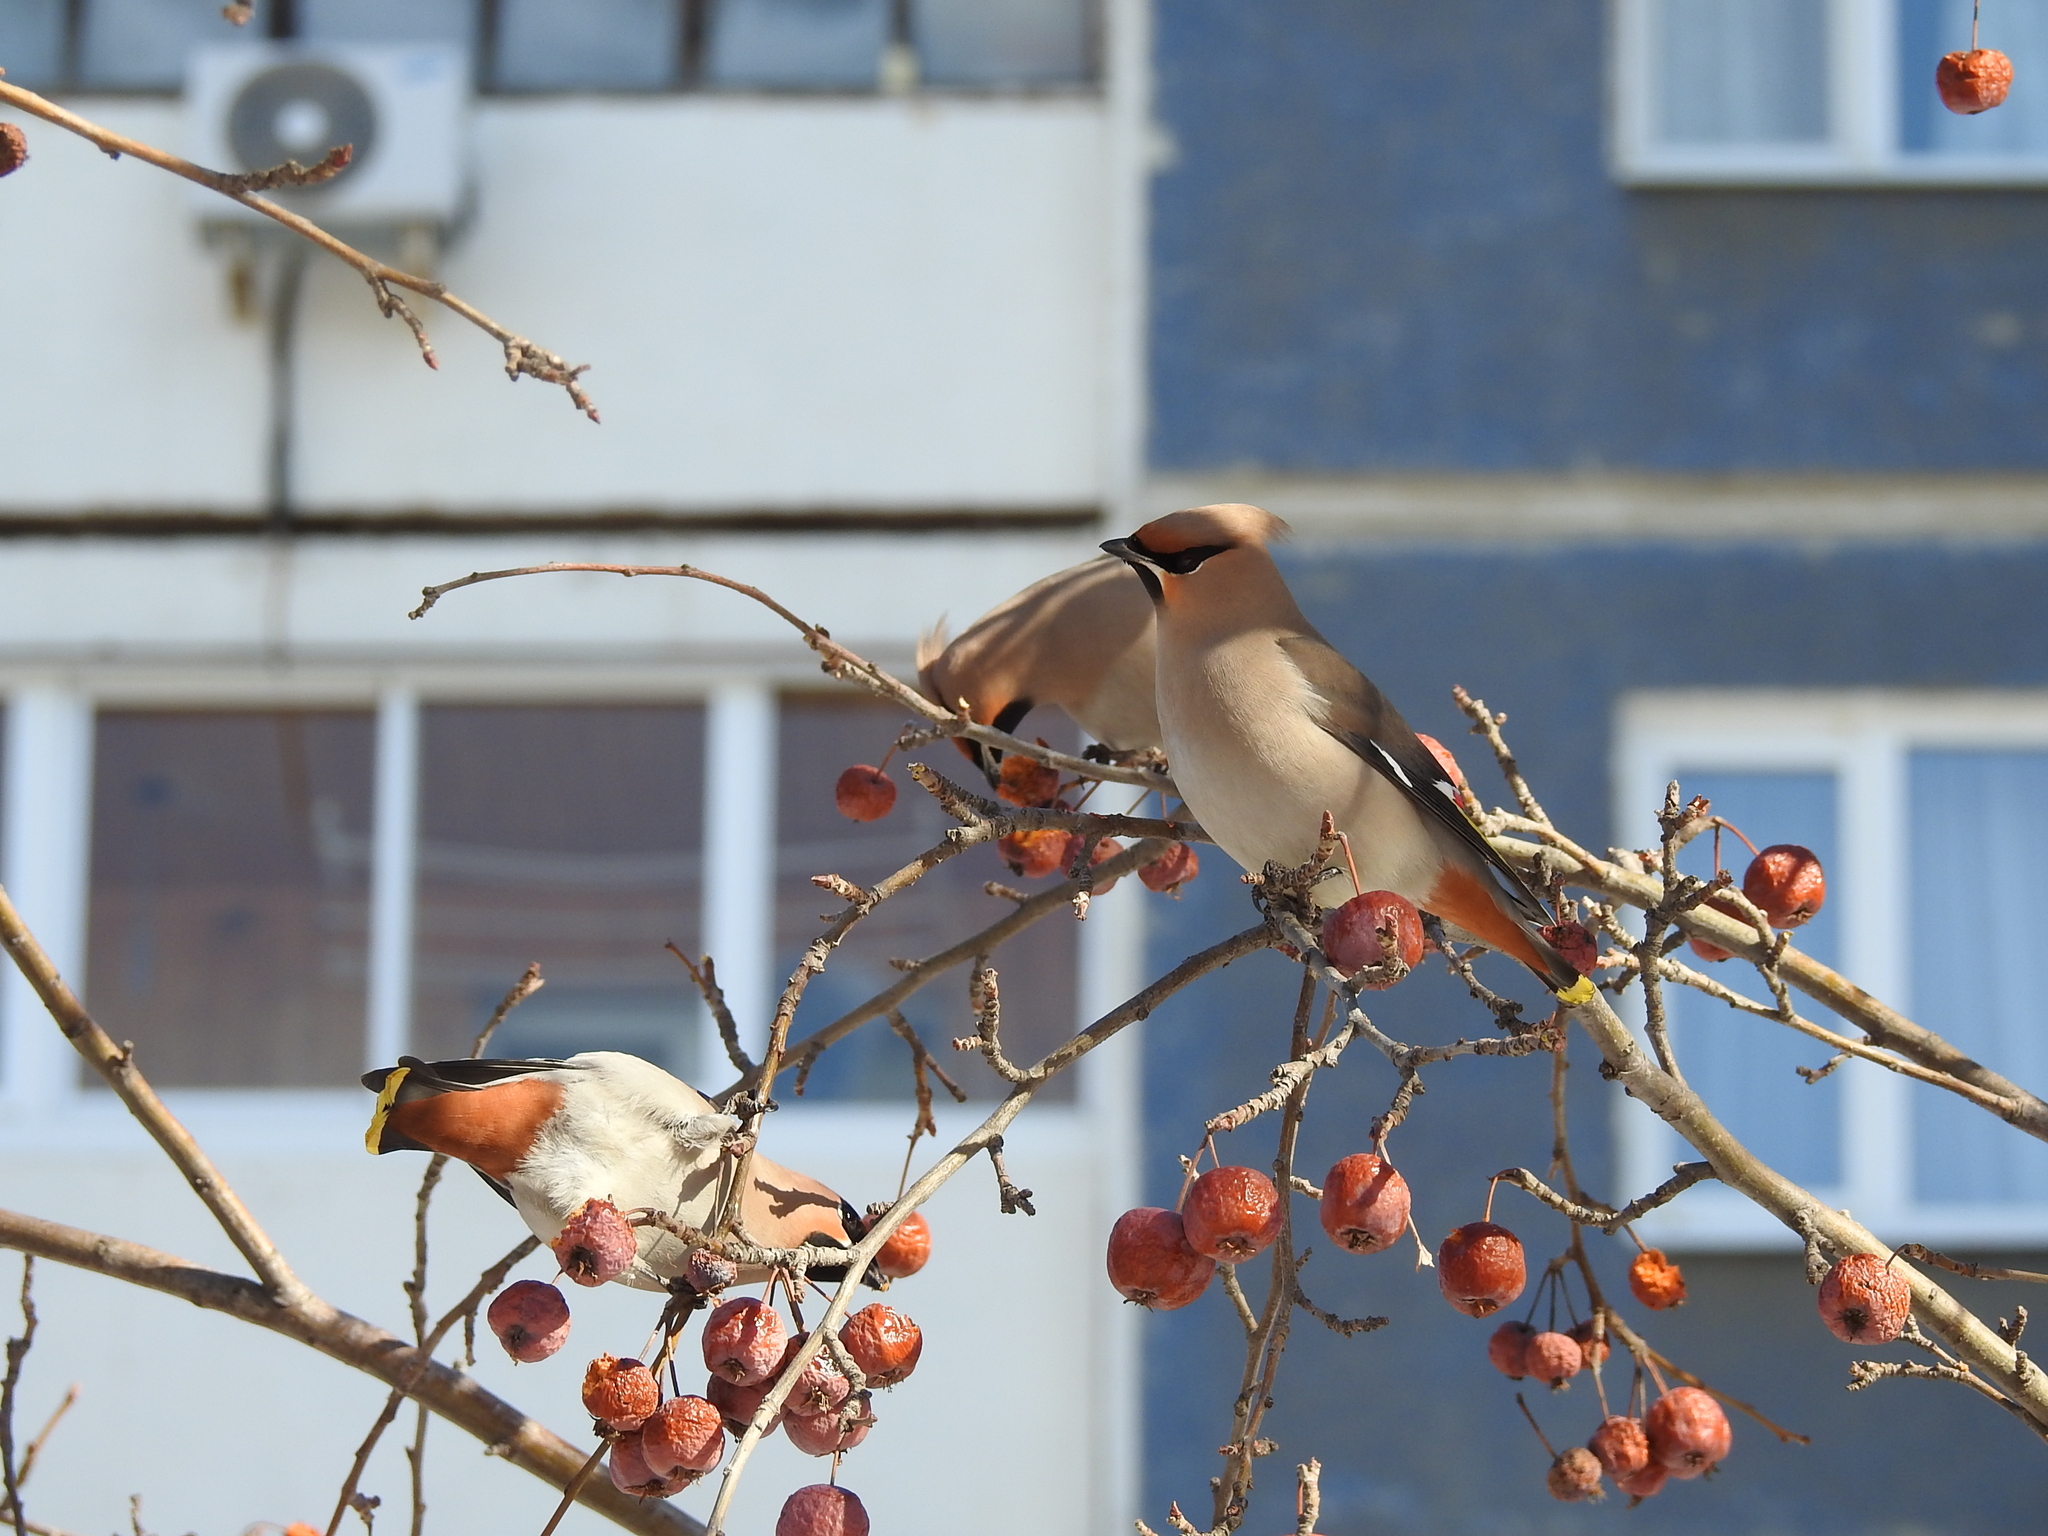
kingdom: Animalia
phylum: Chordata
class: Aves
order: Passeriformes
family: Bombycillidae
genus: Bombycilla
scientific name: Bombycilla garrulus
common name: Bohemian waxwing
